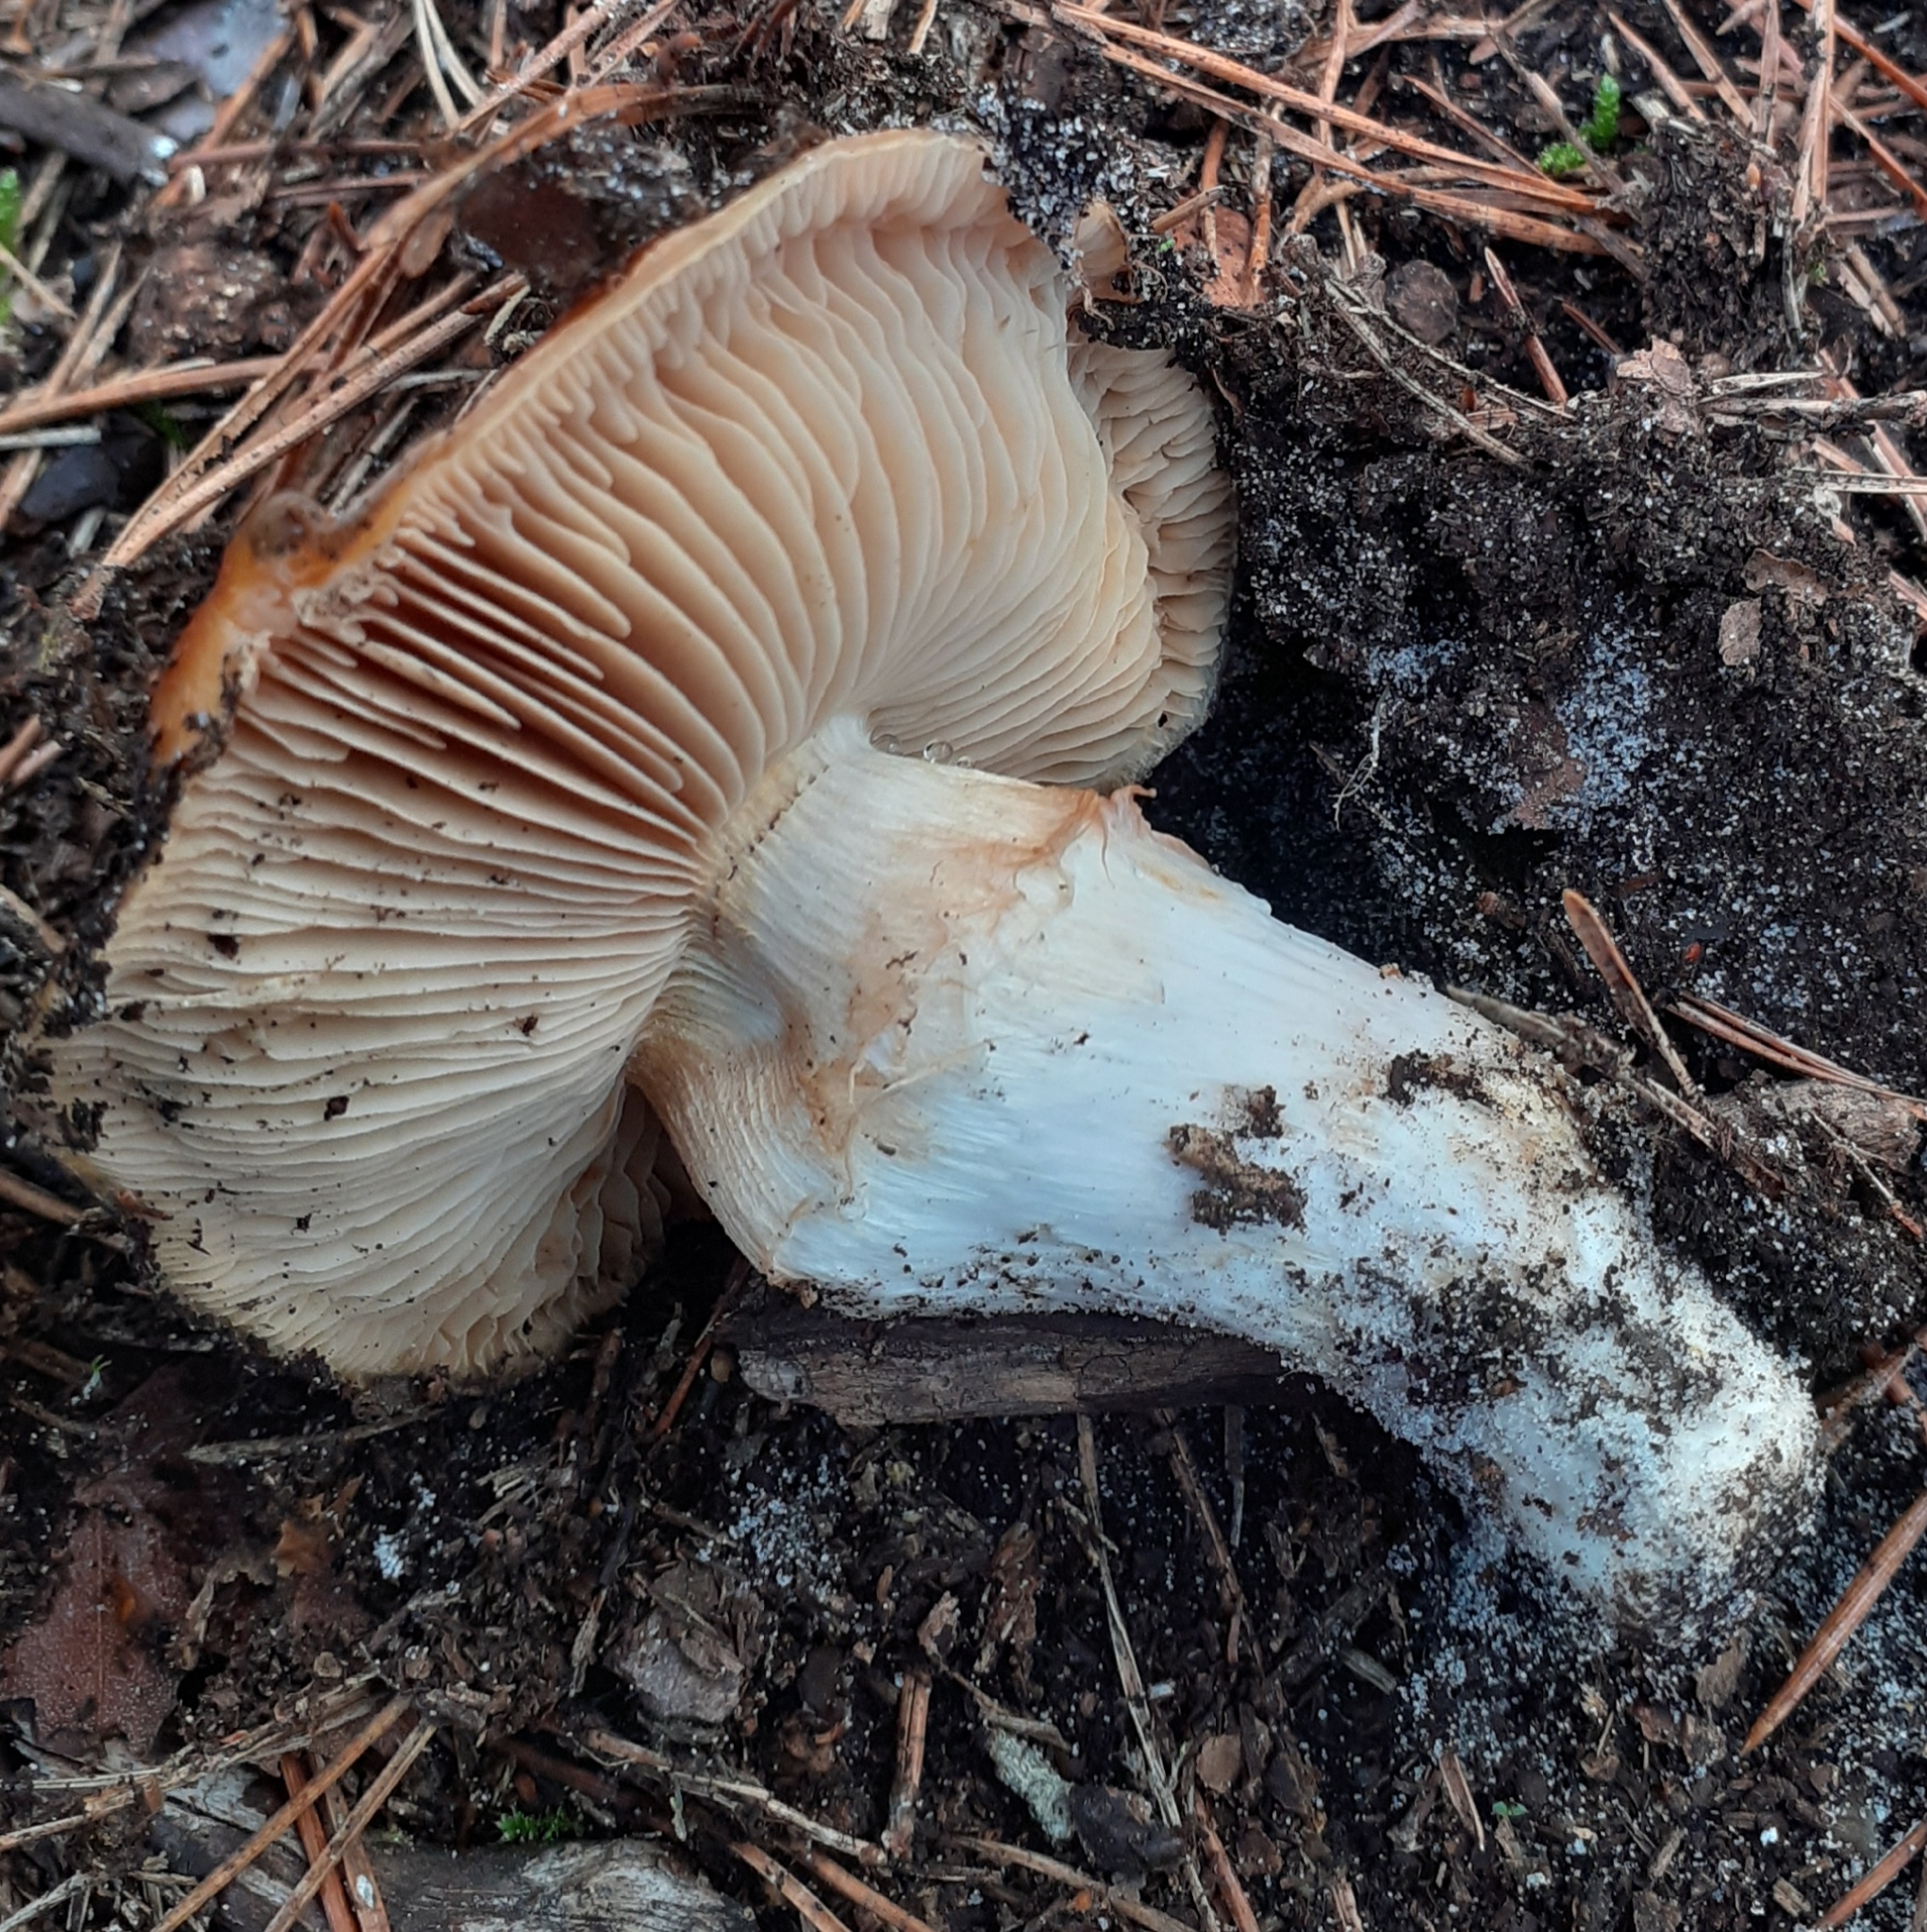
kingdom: Fungi
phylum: Basidiomycota
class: Agaricomycetes
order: Agaricales
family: Cortinariaceae
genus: Cortinarius
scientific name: Cortinarius mucosus
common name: Orange webcap
